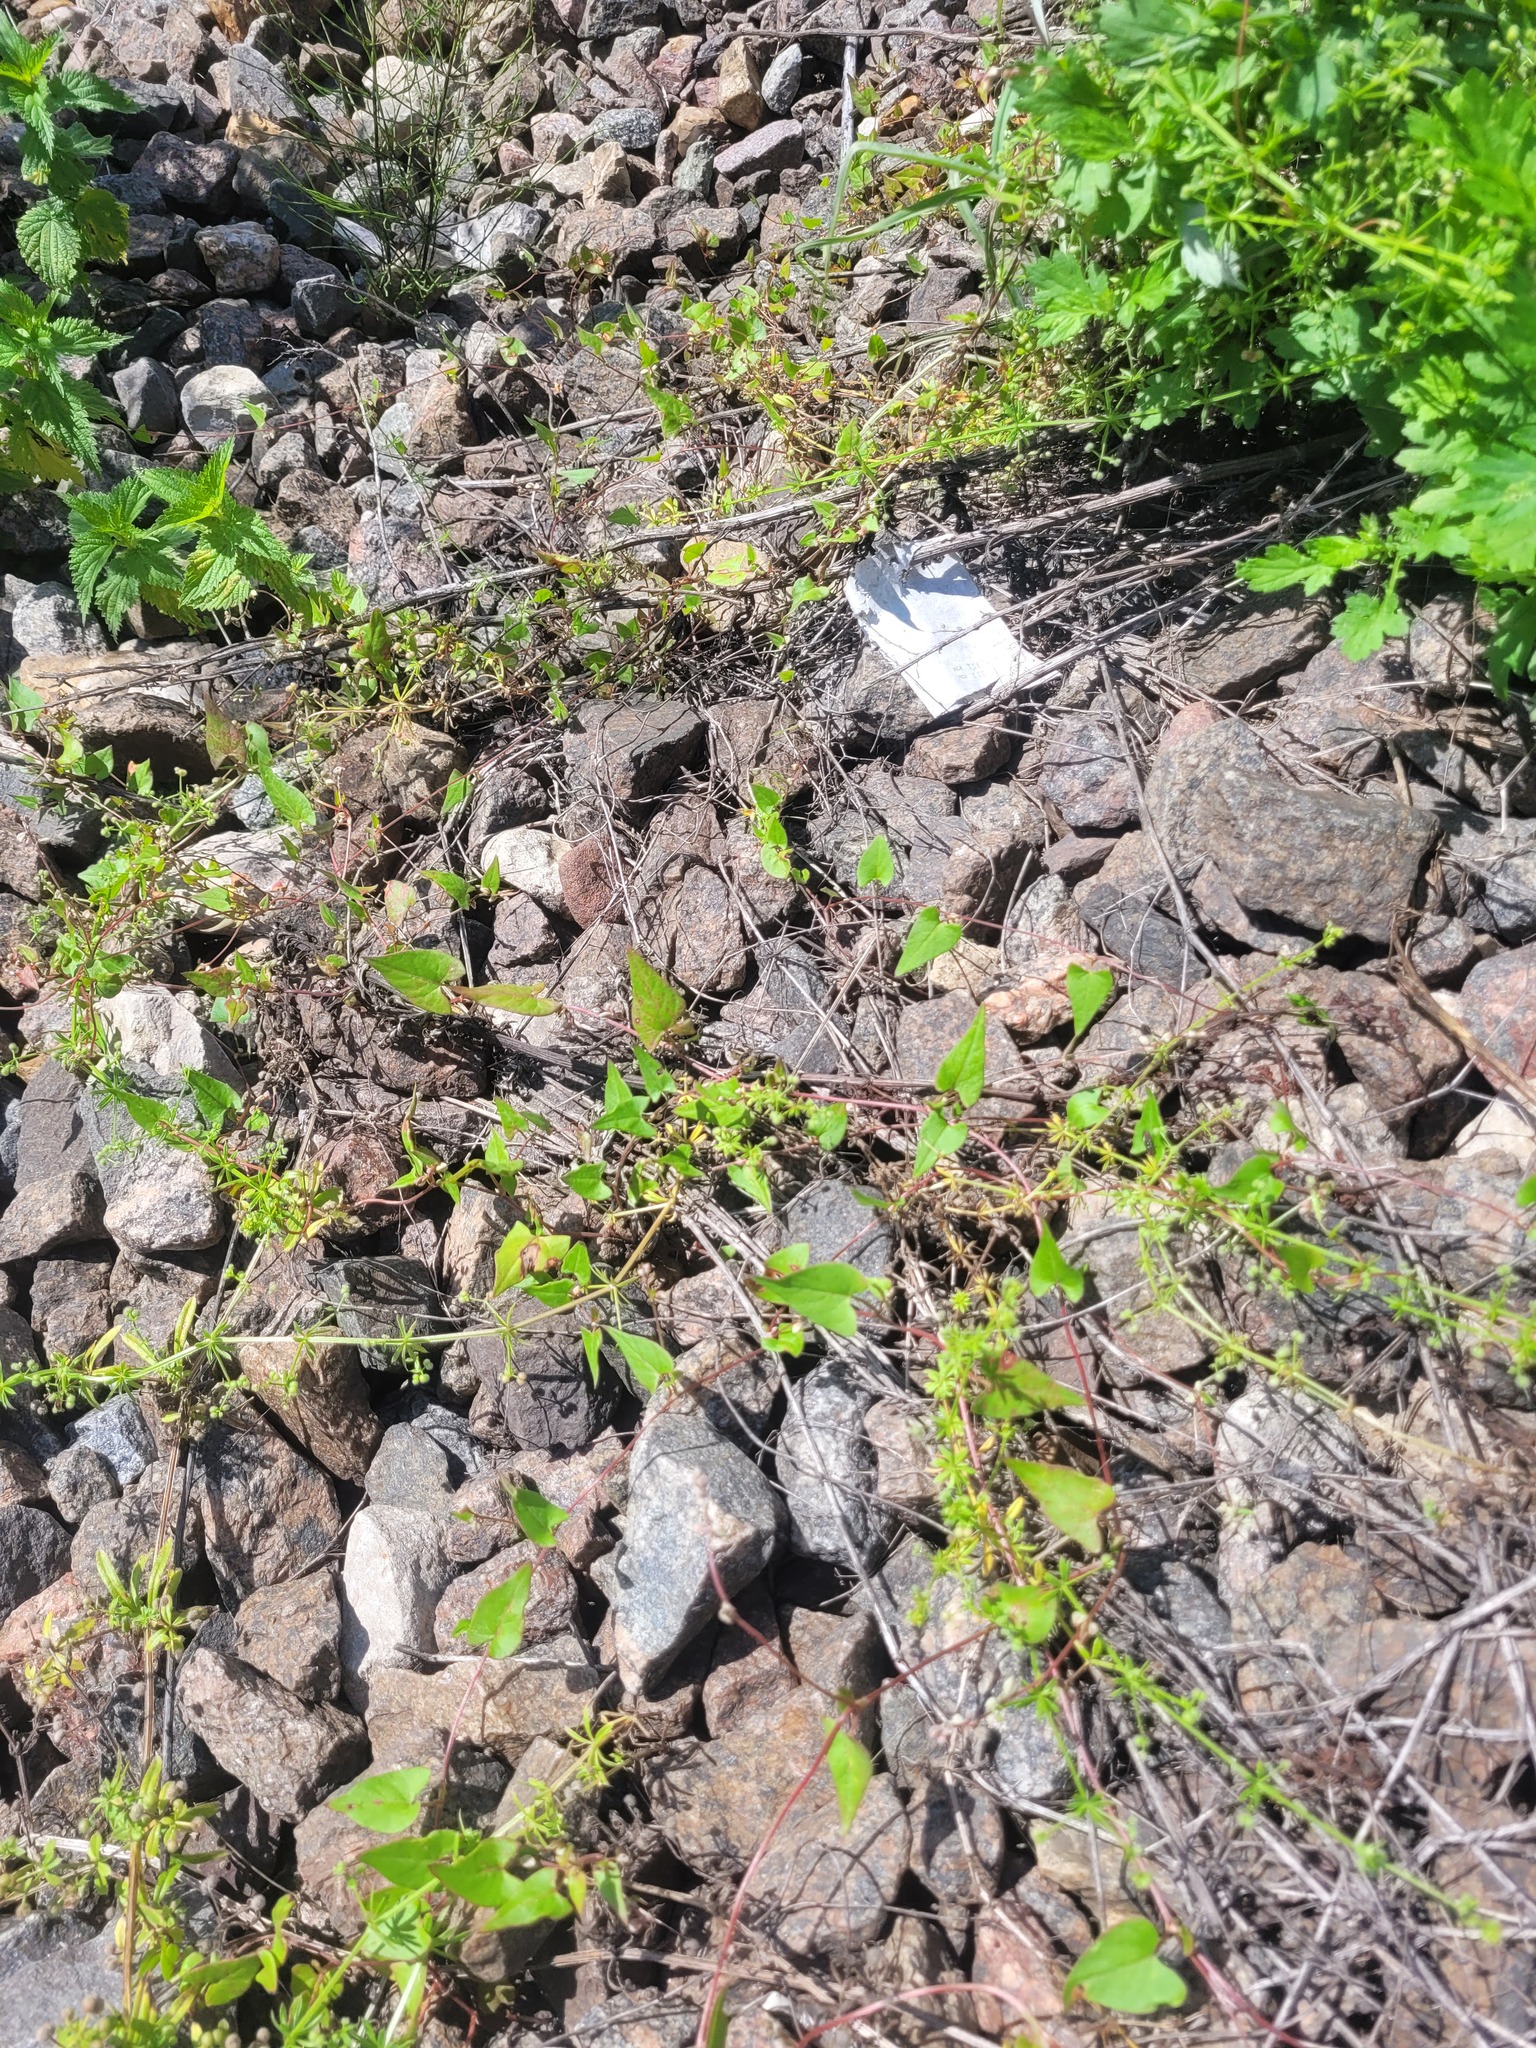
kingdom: Plantae
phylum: Tracheophyta
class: Magnoliopsida
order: Caryophyllales
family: Polygonaceae
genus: Fallopia
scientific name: Fallopia convolvulus
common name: Black bindweed
